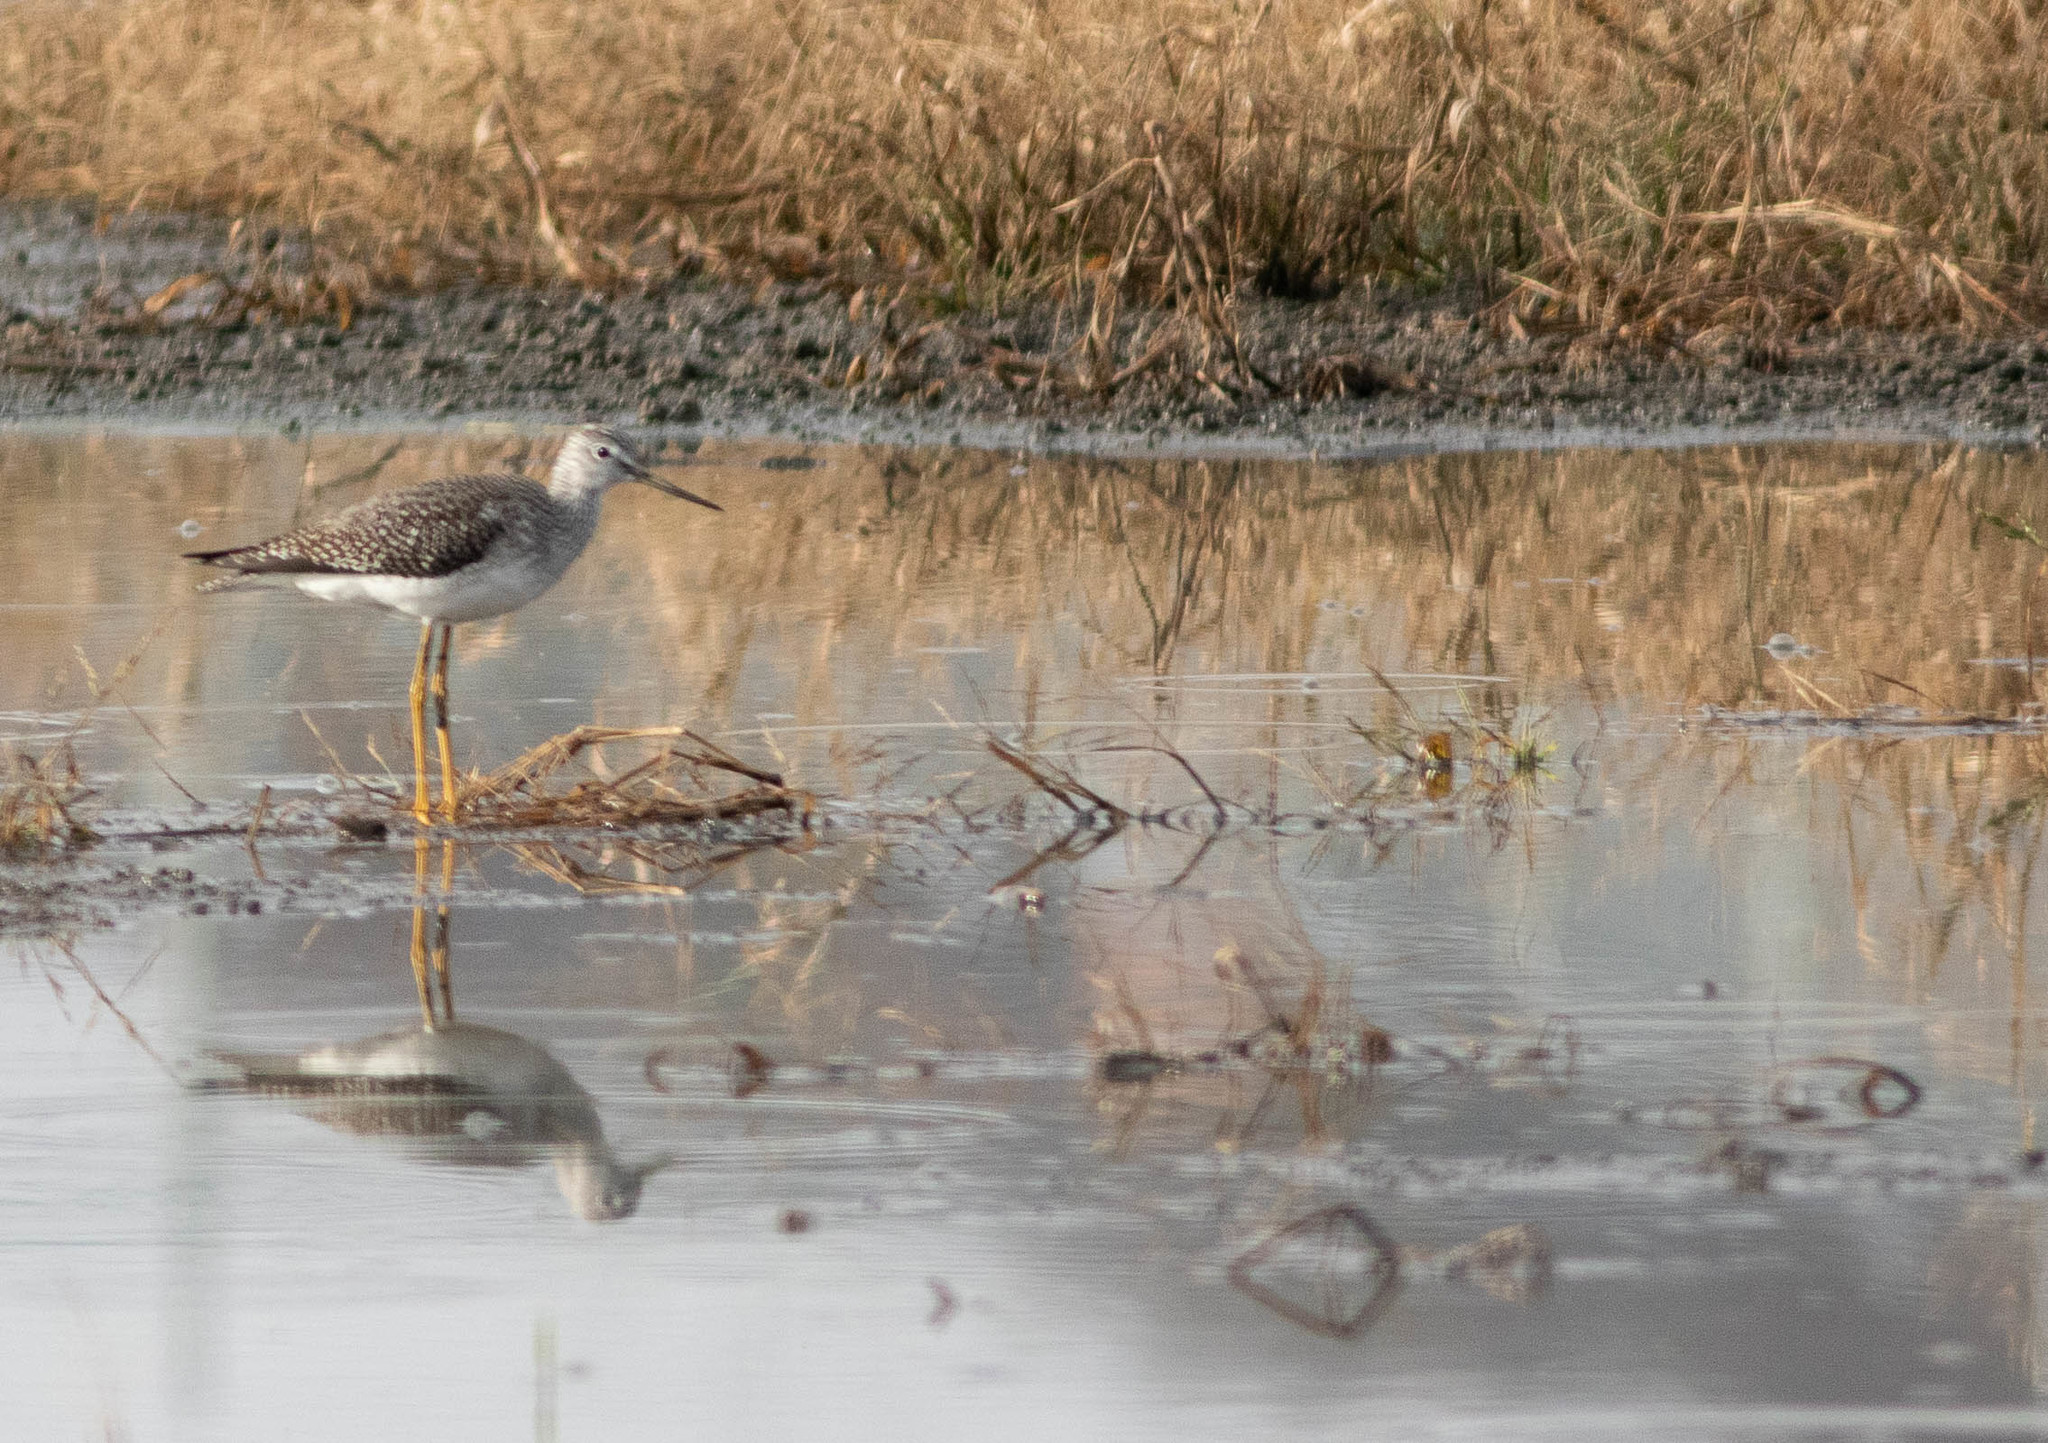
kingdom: Animalia
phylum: Chordata
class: Aves
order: Charadriiformes
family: Scolopacidae
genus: Tringa
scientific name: Tringa melanoleuca
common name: Greater yellowlegs
